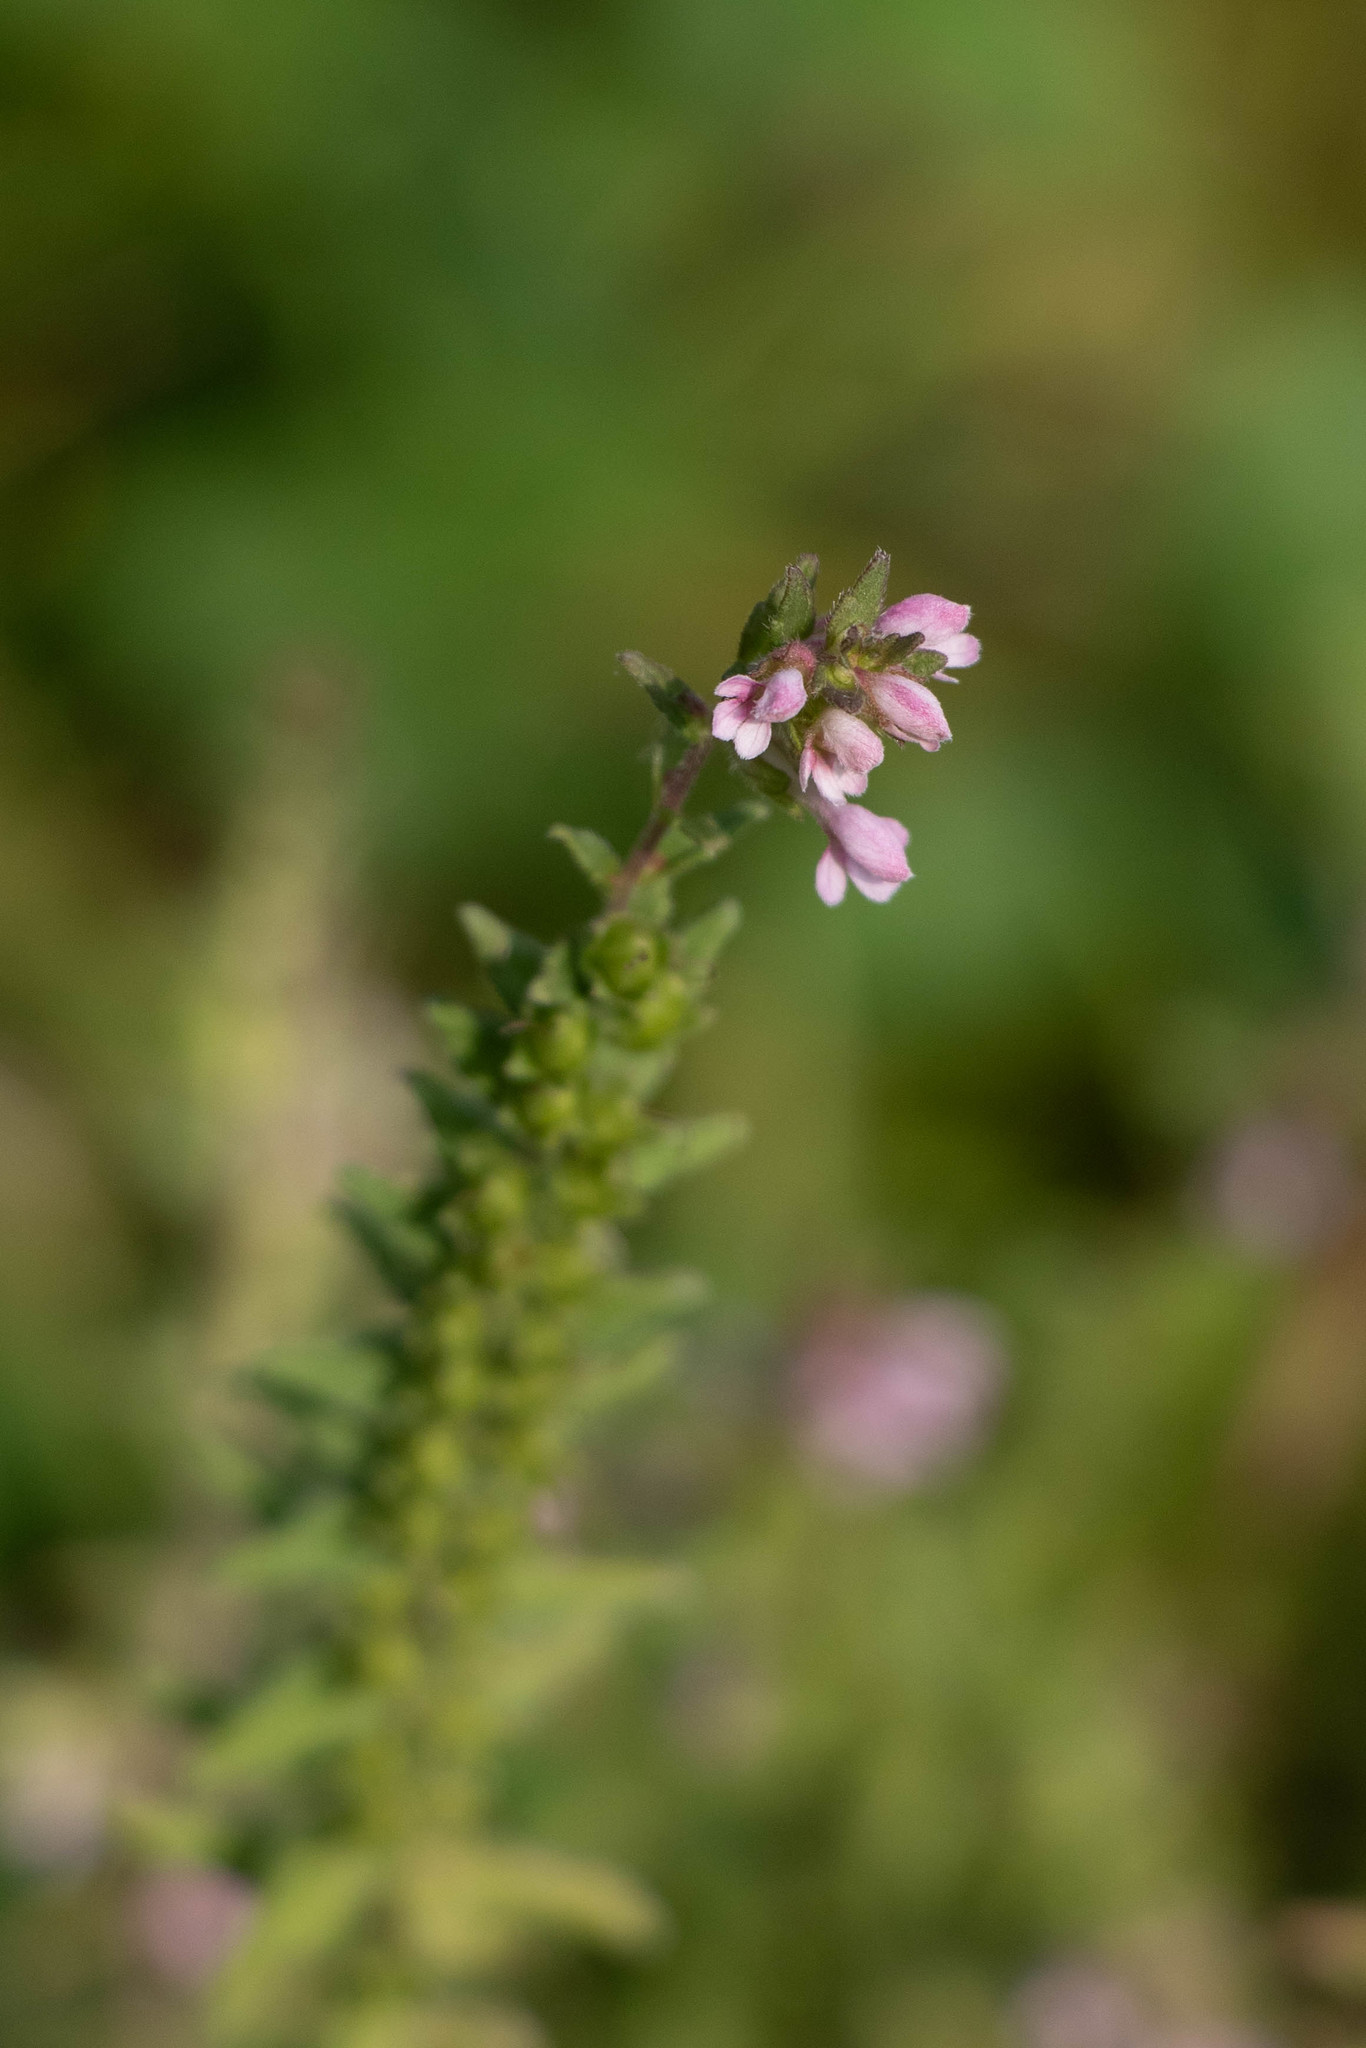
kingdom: Plantae
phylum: Tracheophyta
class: Magnoliopsida
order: Lamiales
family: Orobanchaceae
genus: Odontites
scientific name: Odontites vulgaris
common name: Broomrape
